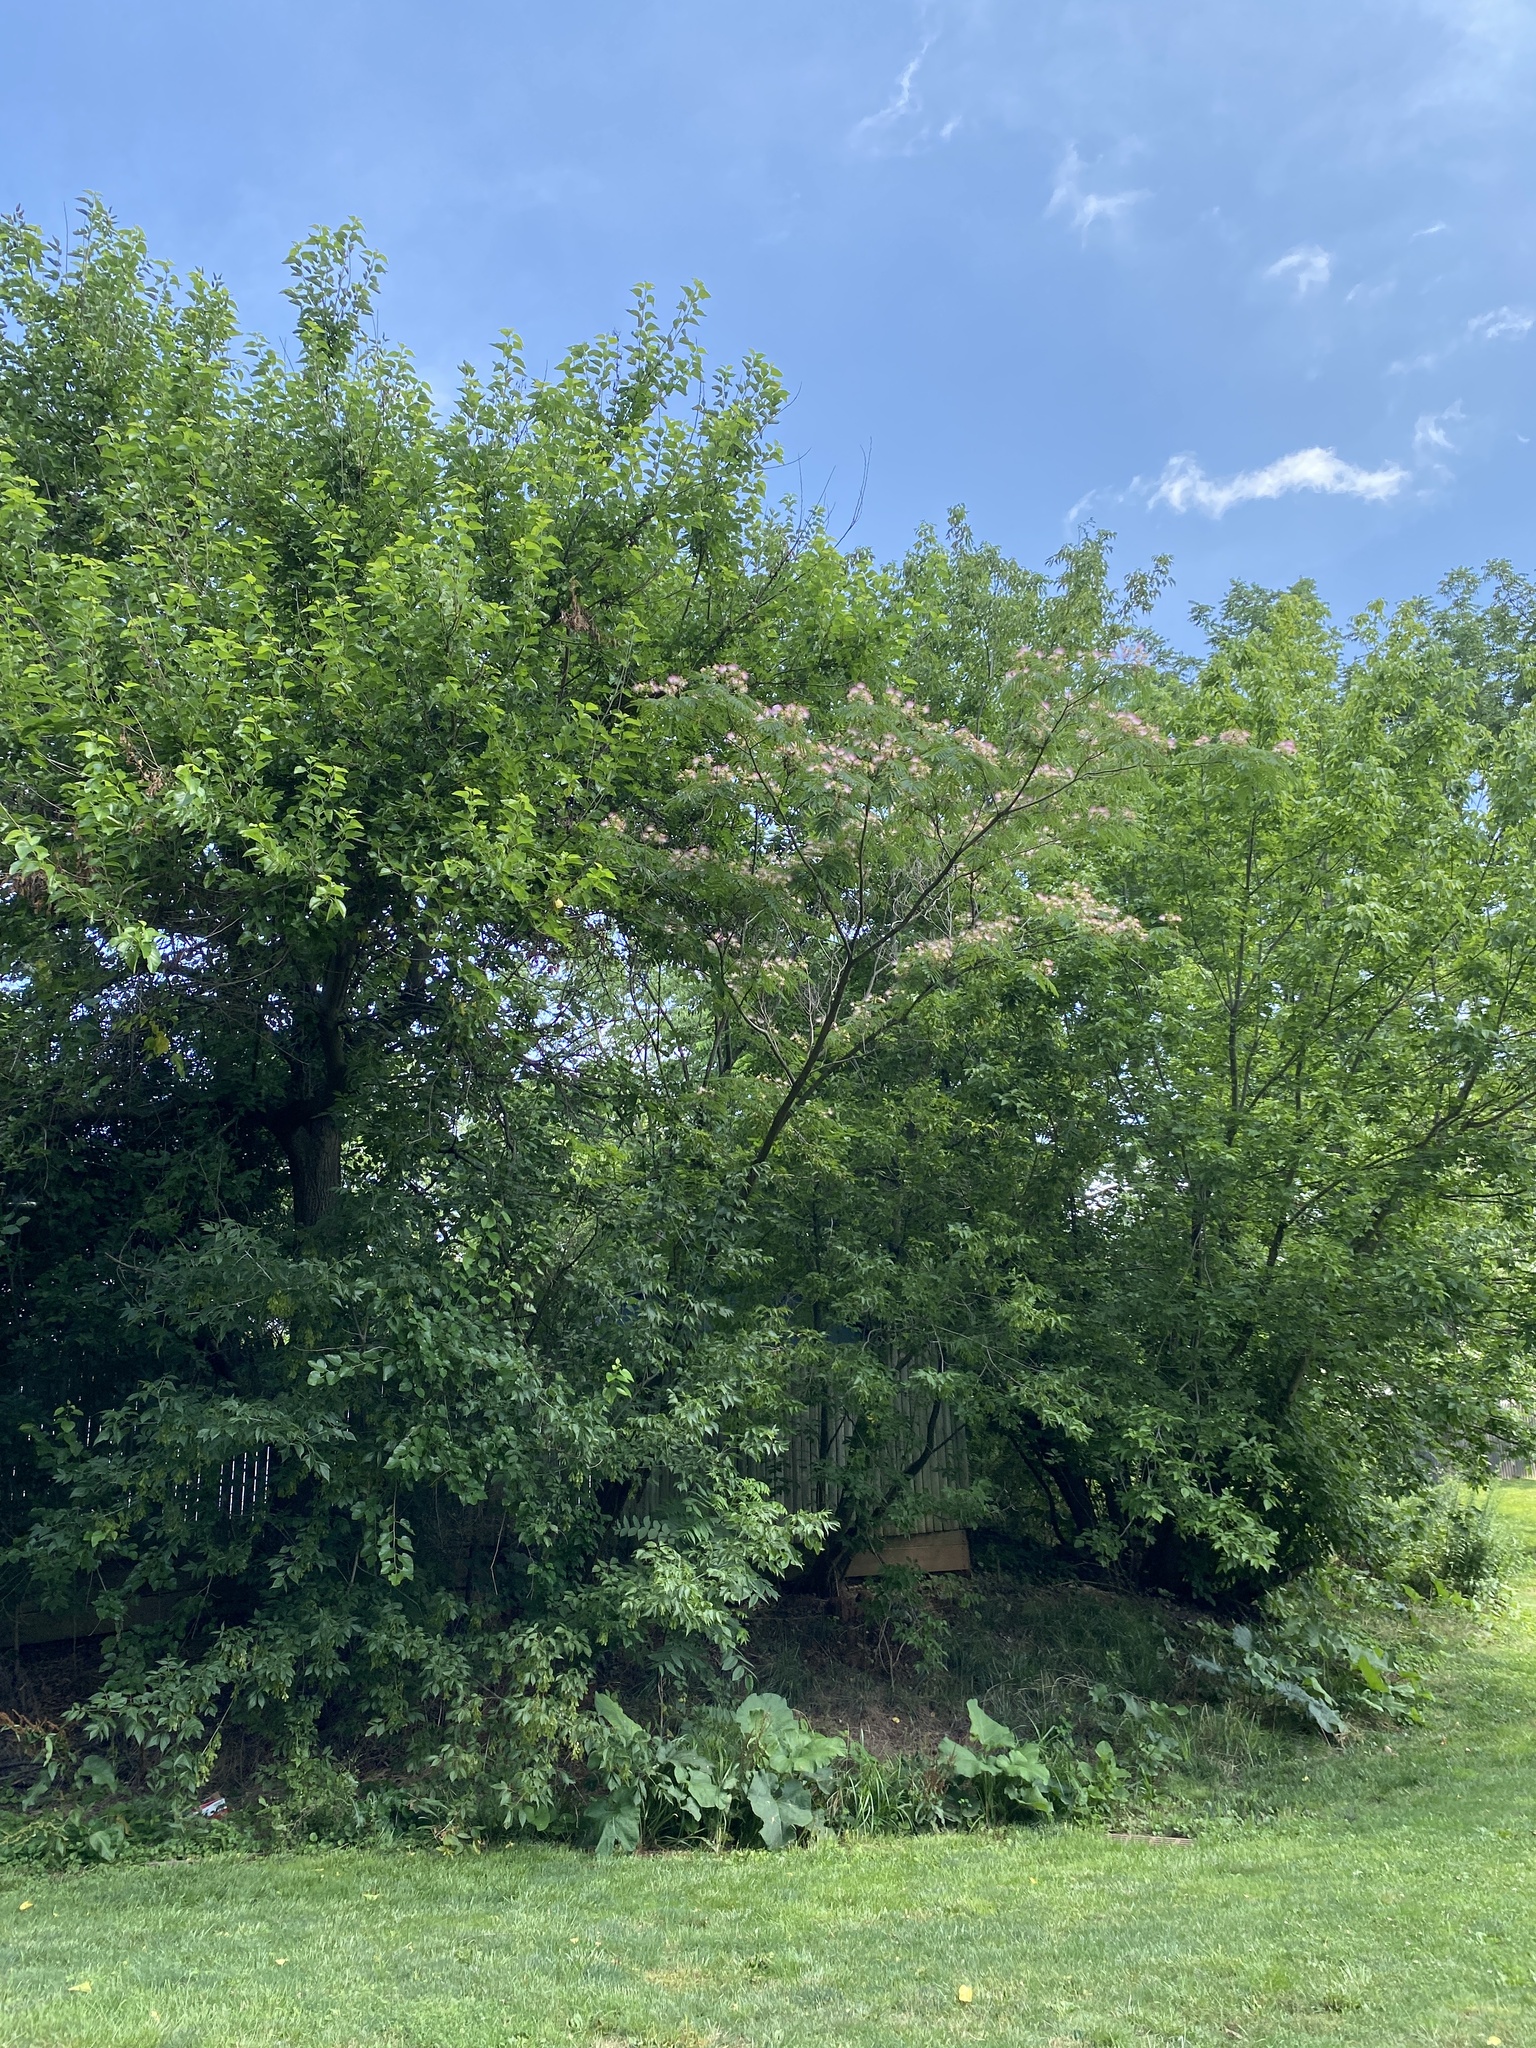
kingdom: Plantae
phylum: Tracheophyta
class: Magnoliopsida
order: Fabales
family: Fabaceae
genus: Albizia
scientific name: Albizia julibrissin
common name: Silktree
